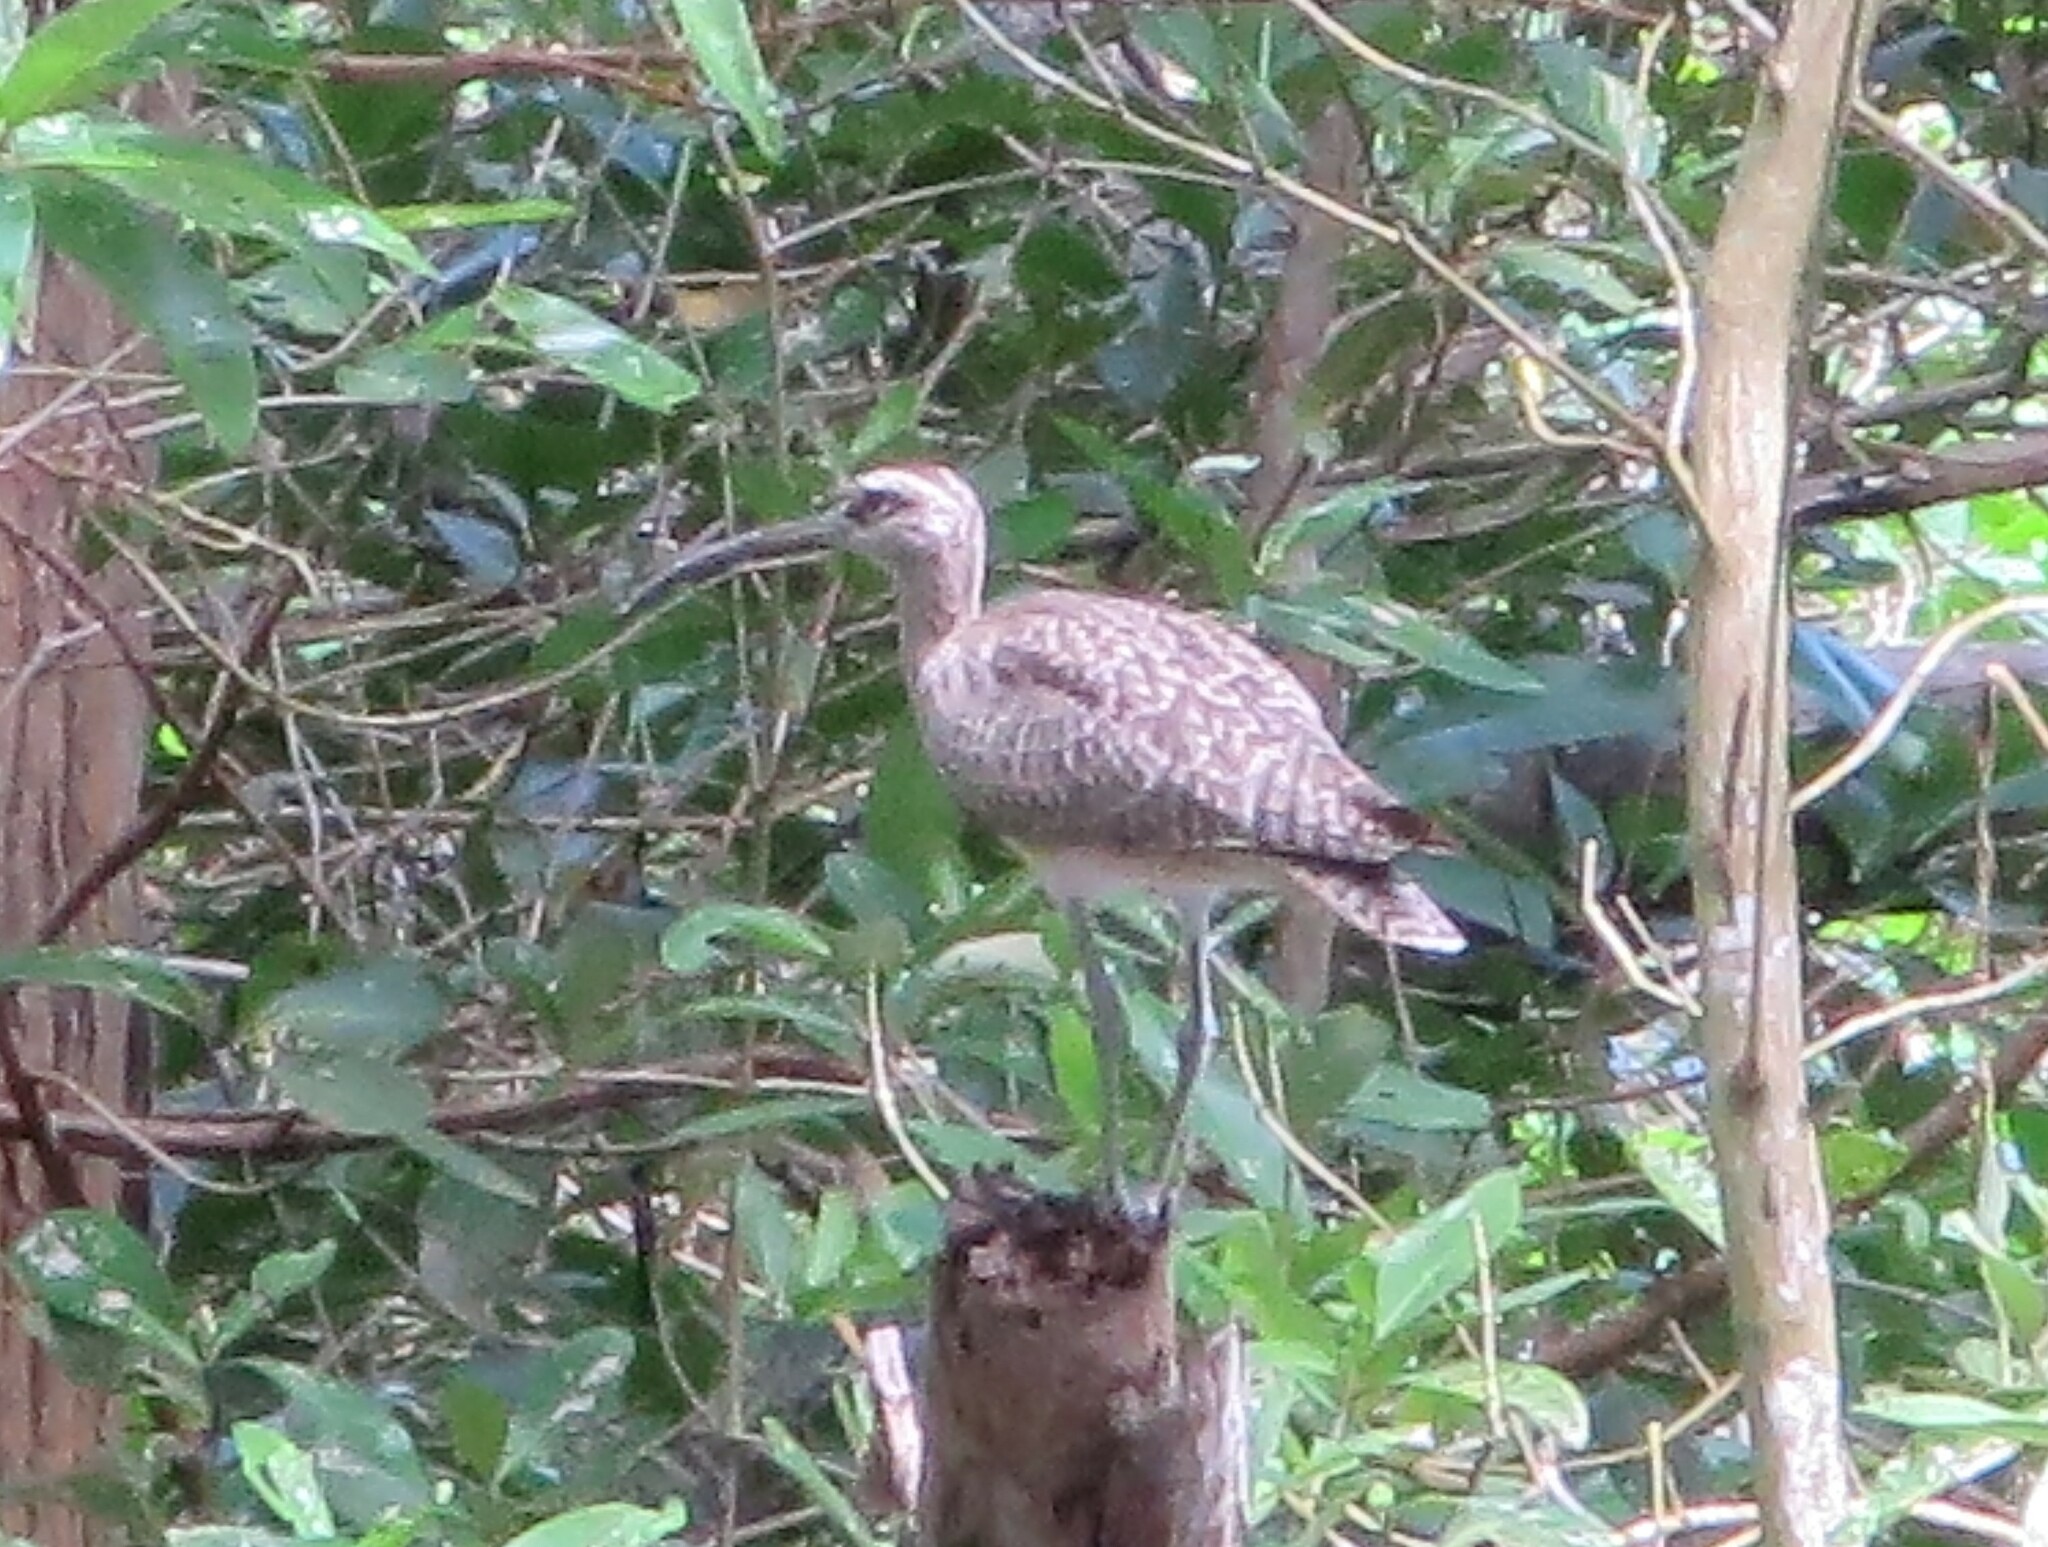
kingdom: Animalia
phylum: Chordata
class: Aves
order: Charadriiformes
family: Scolopacidae
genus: Numenius
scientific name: Numenius phaeopus
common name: Whimbrel
